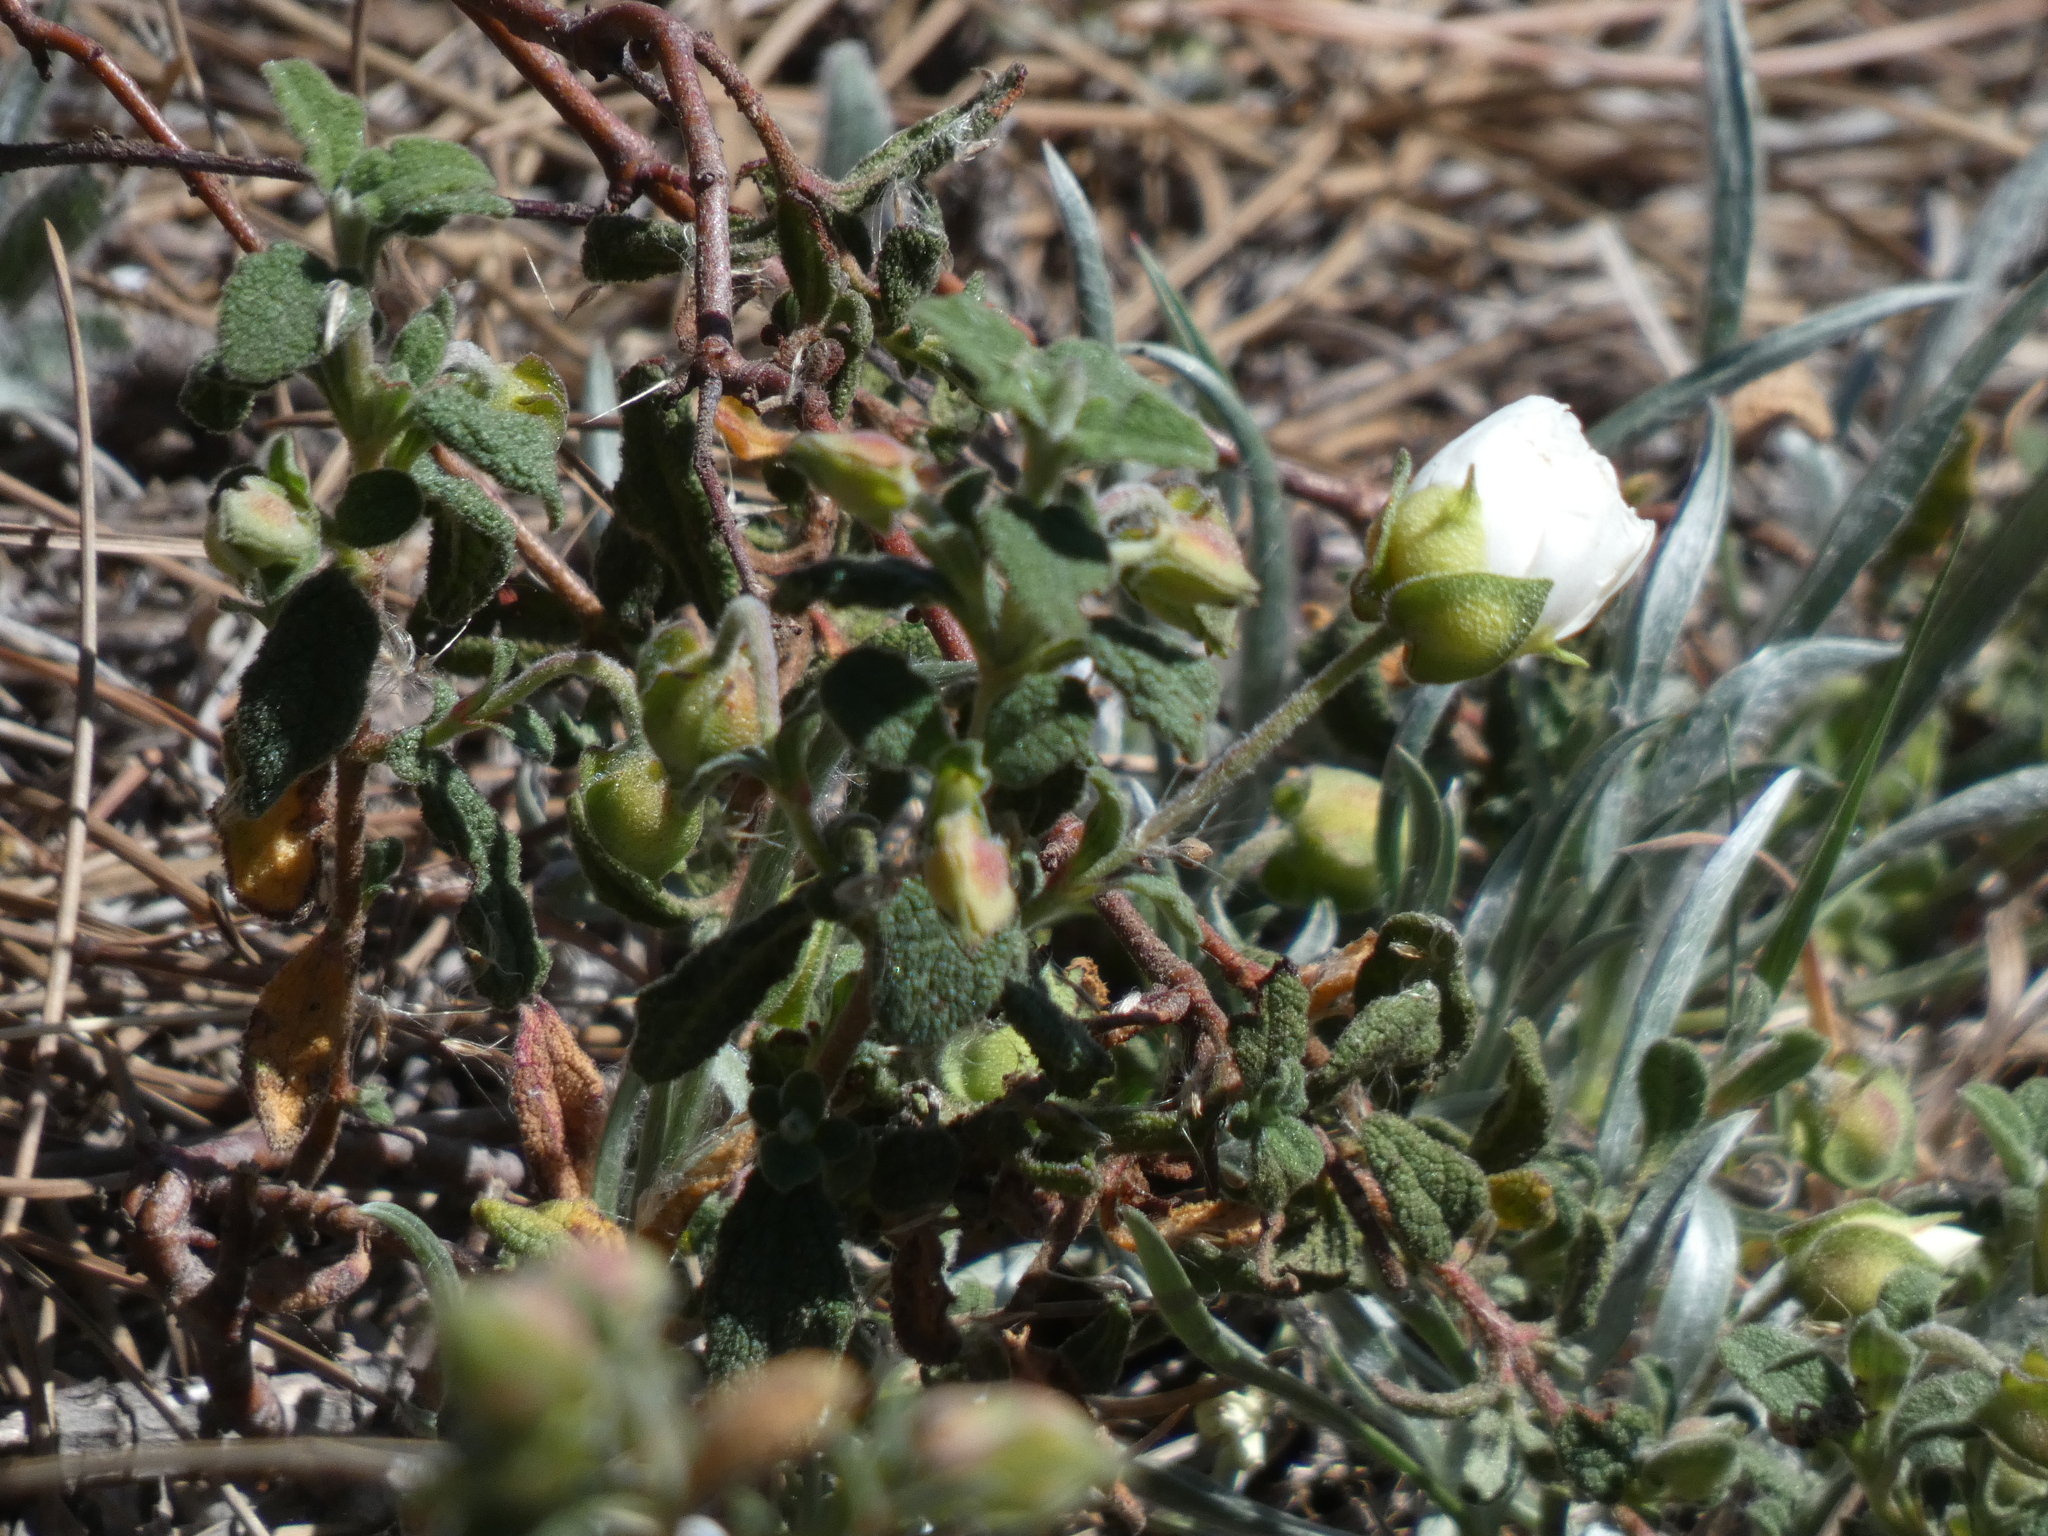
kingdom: Plantae
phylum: Tracheophyta
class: Magnoliopsida
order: Malvales
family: Cistaceae
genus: Cistus
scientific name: Cistus salviifolius
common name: Salvia cistus
